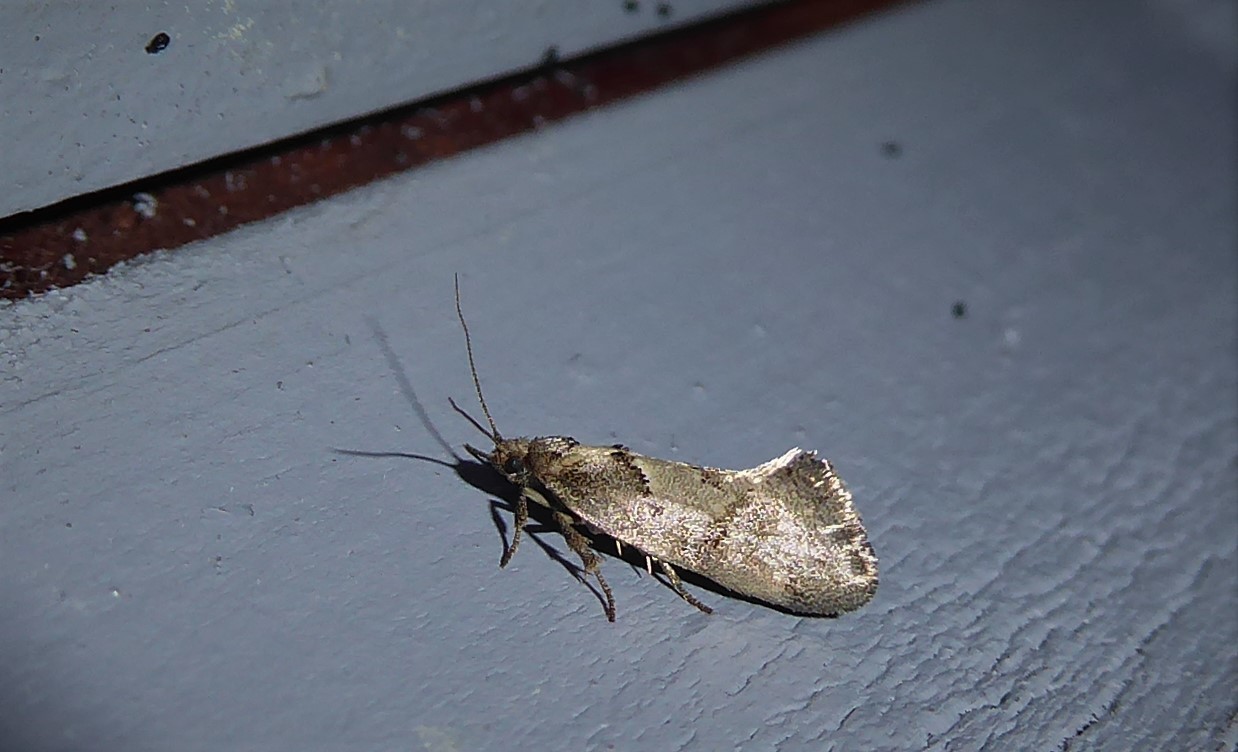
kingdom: Animalia
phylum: Arthropoda
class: Insecta
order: Lepidoptera
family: Oecophoridae
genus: Tingena
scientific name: Tingena brachyacma
